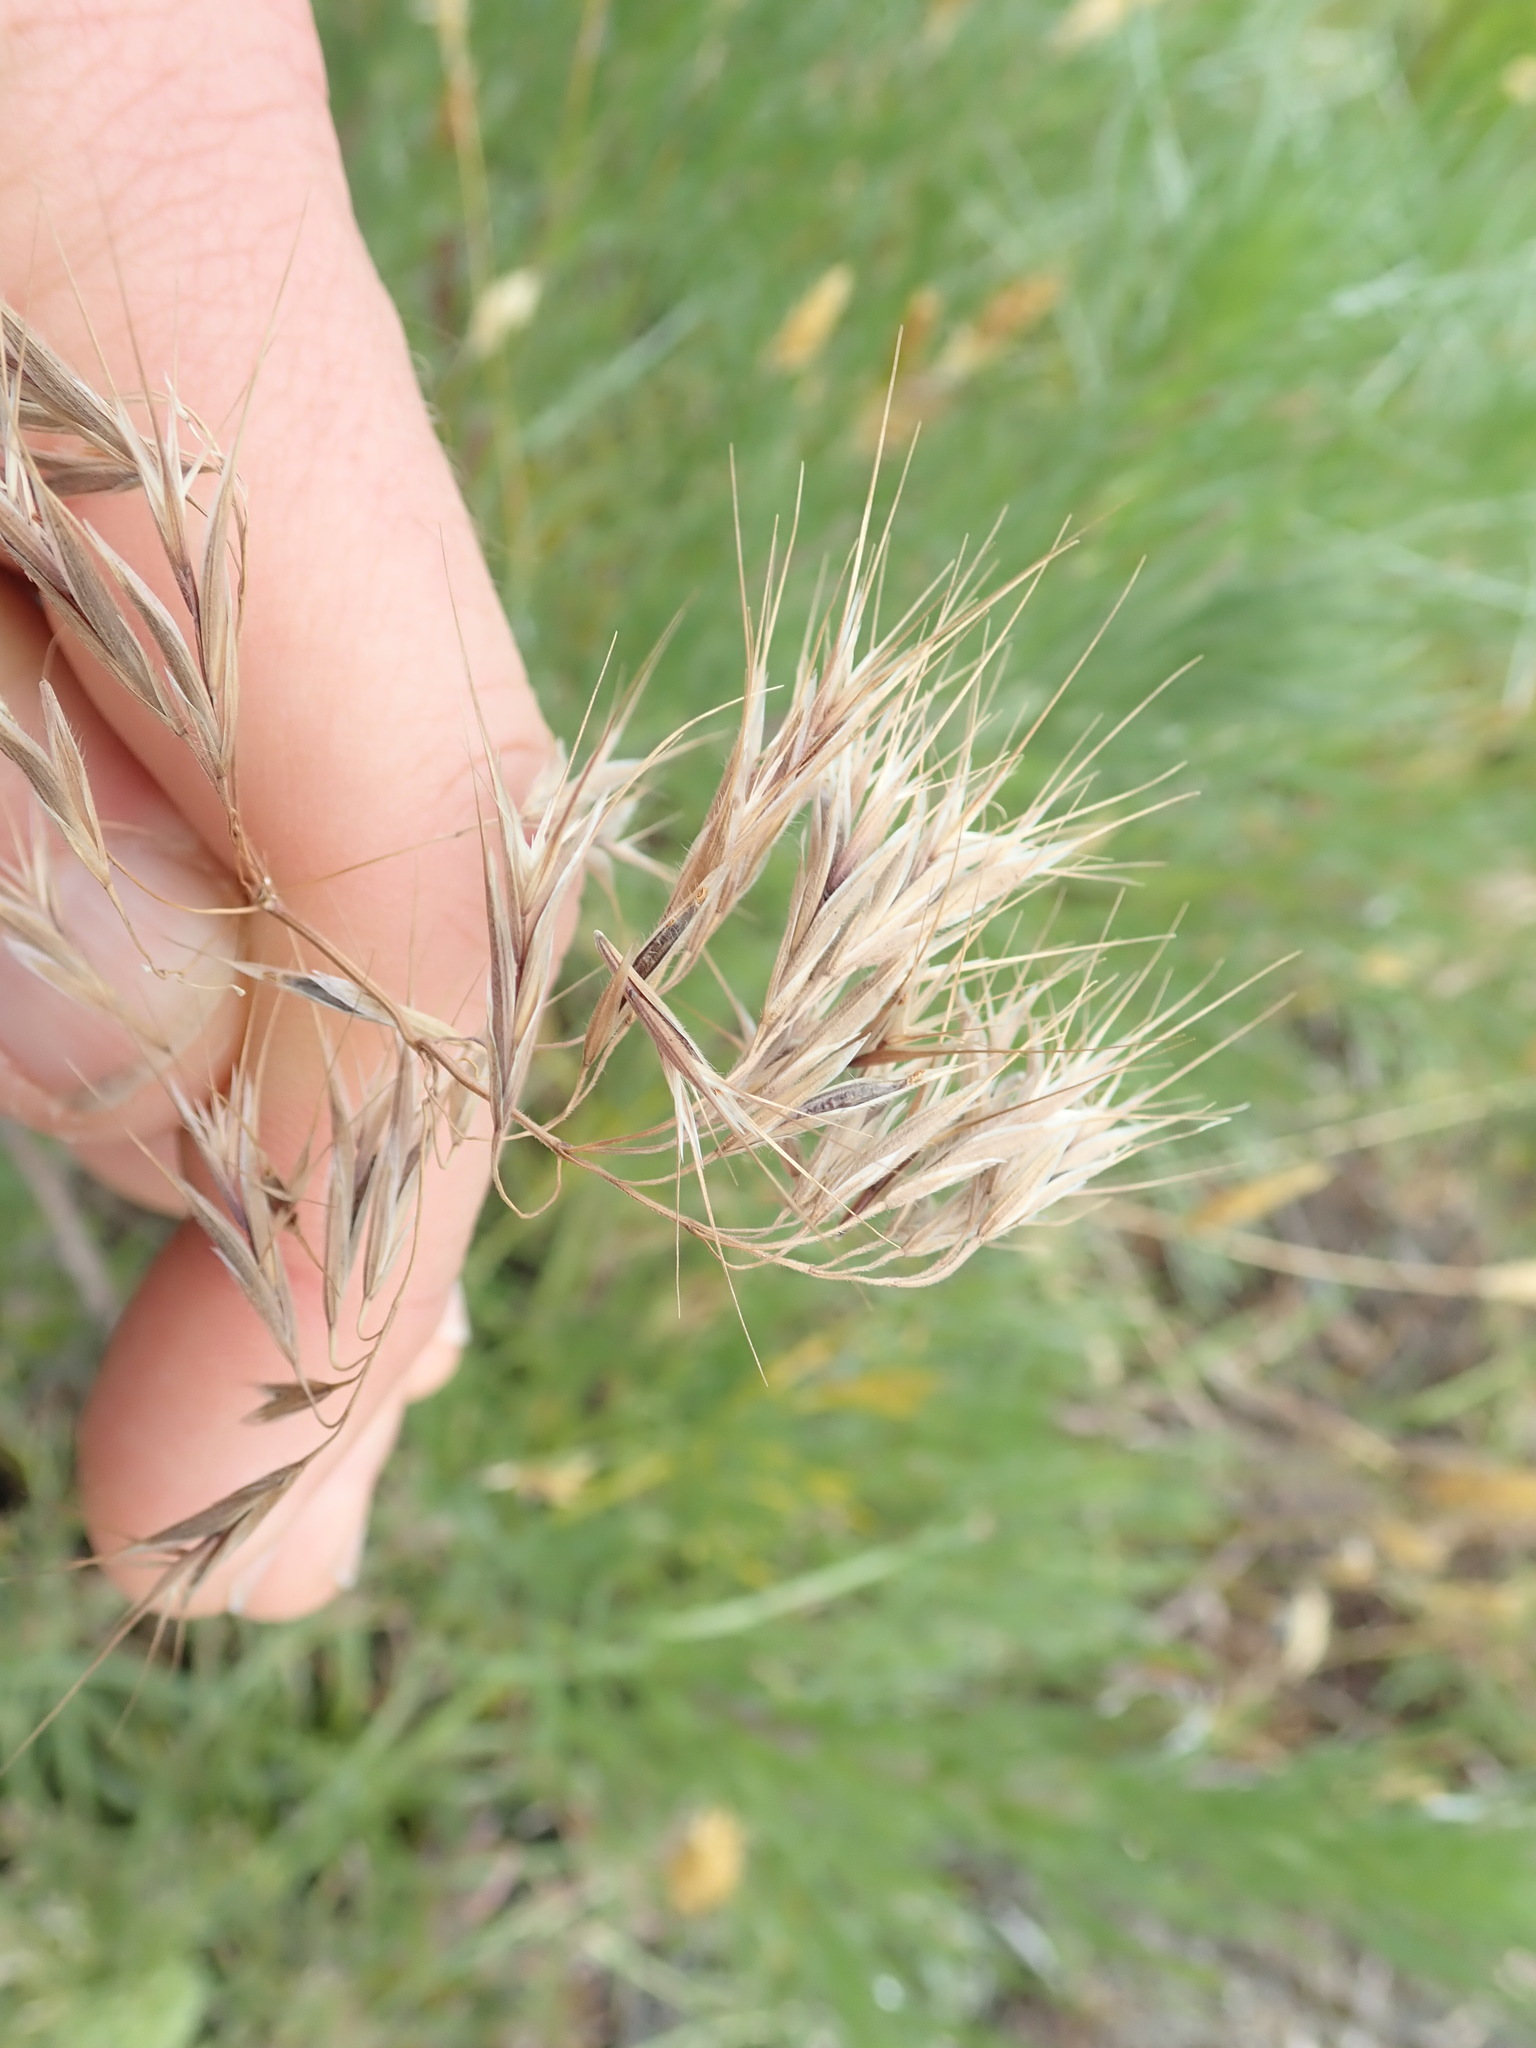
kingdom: Plantae
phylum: Tracheophyta
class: Liliopsida
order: Poales
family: Poaceae
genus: Bromus
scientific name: Bromus tectorum
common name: Cheatgrass
